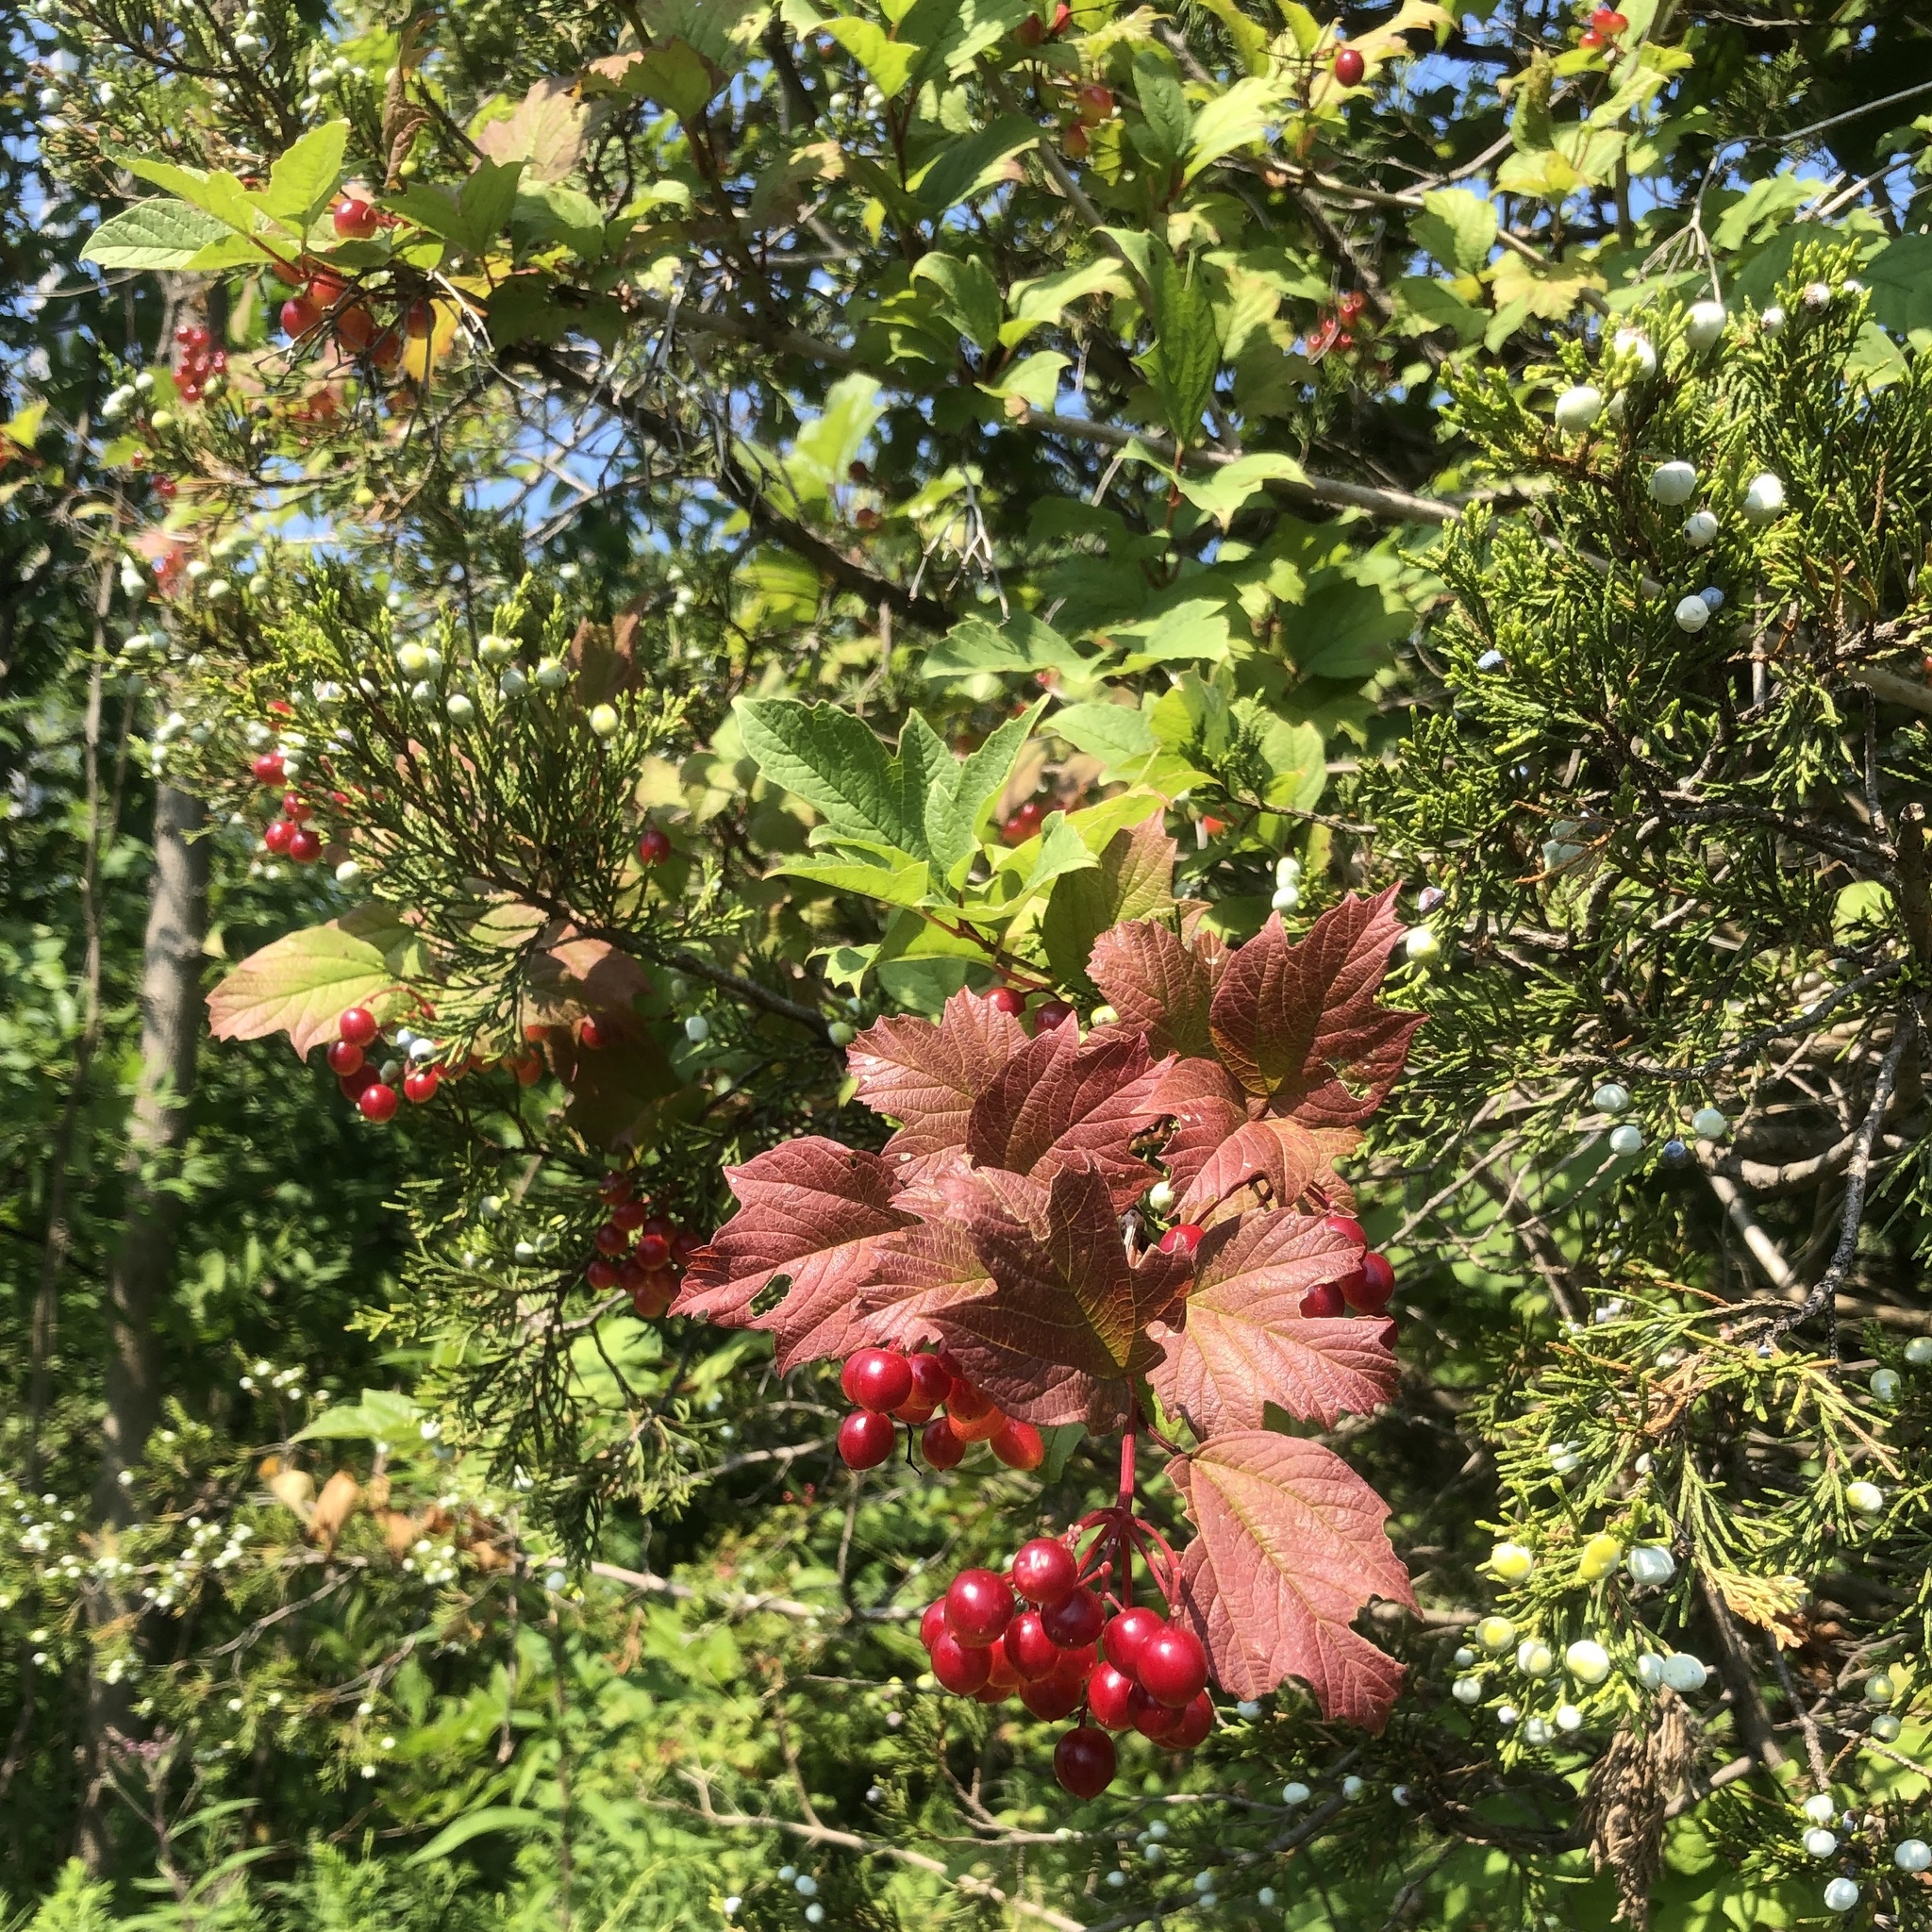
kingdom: Plantae
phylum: Tracheophyta
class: Magnoliopsida
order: Dipsacales
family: Viburnaceae
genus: Viburnum
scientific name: Viburnum opulus
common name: Guelder-rose
